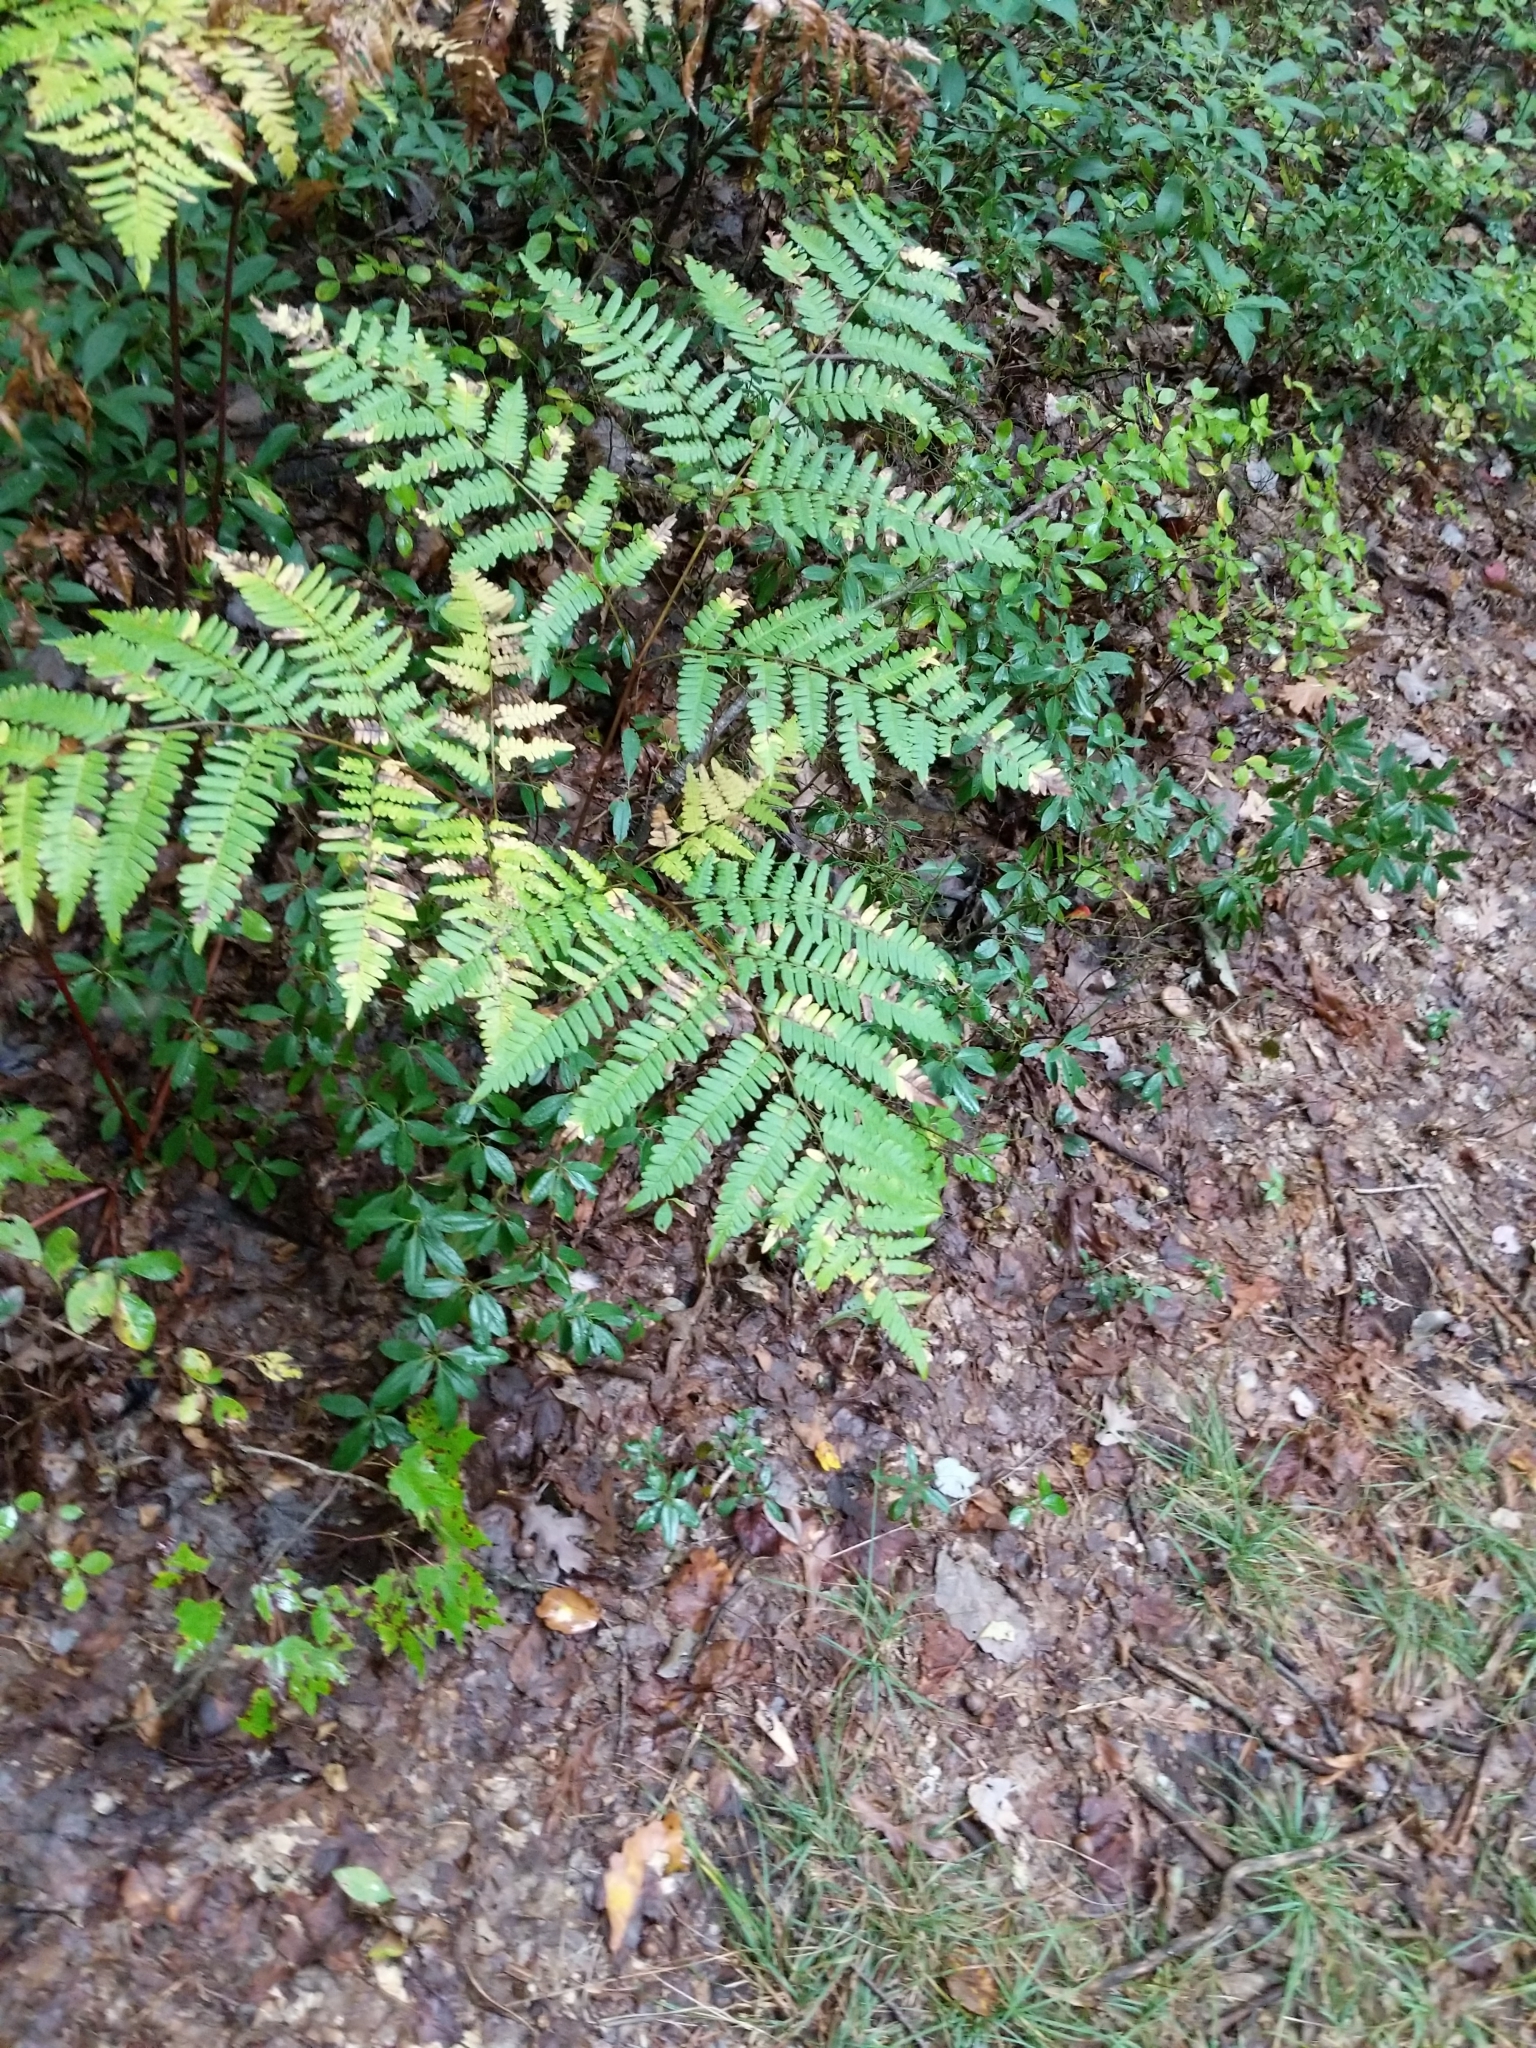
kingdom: Plantae
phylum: Tracheophyta
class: Polypodiopsida
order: Polypodiales
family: Dennstaedtiaceae
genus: Pteridium
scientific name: Pteridium aquilinum
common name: Bracken
